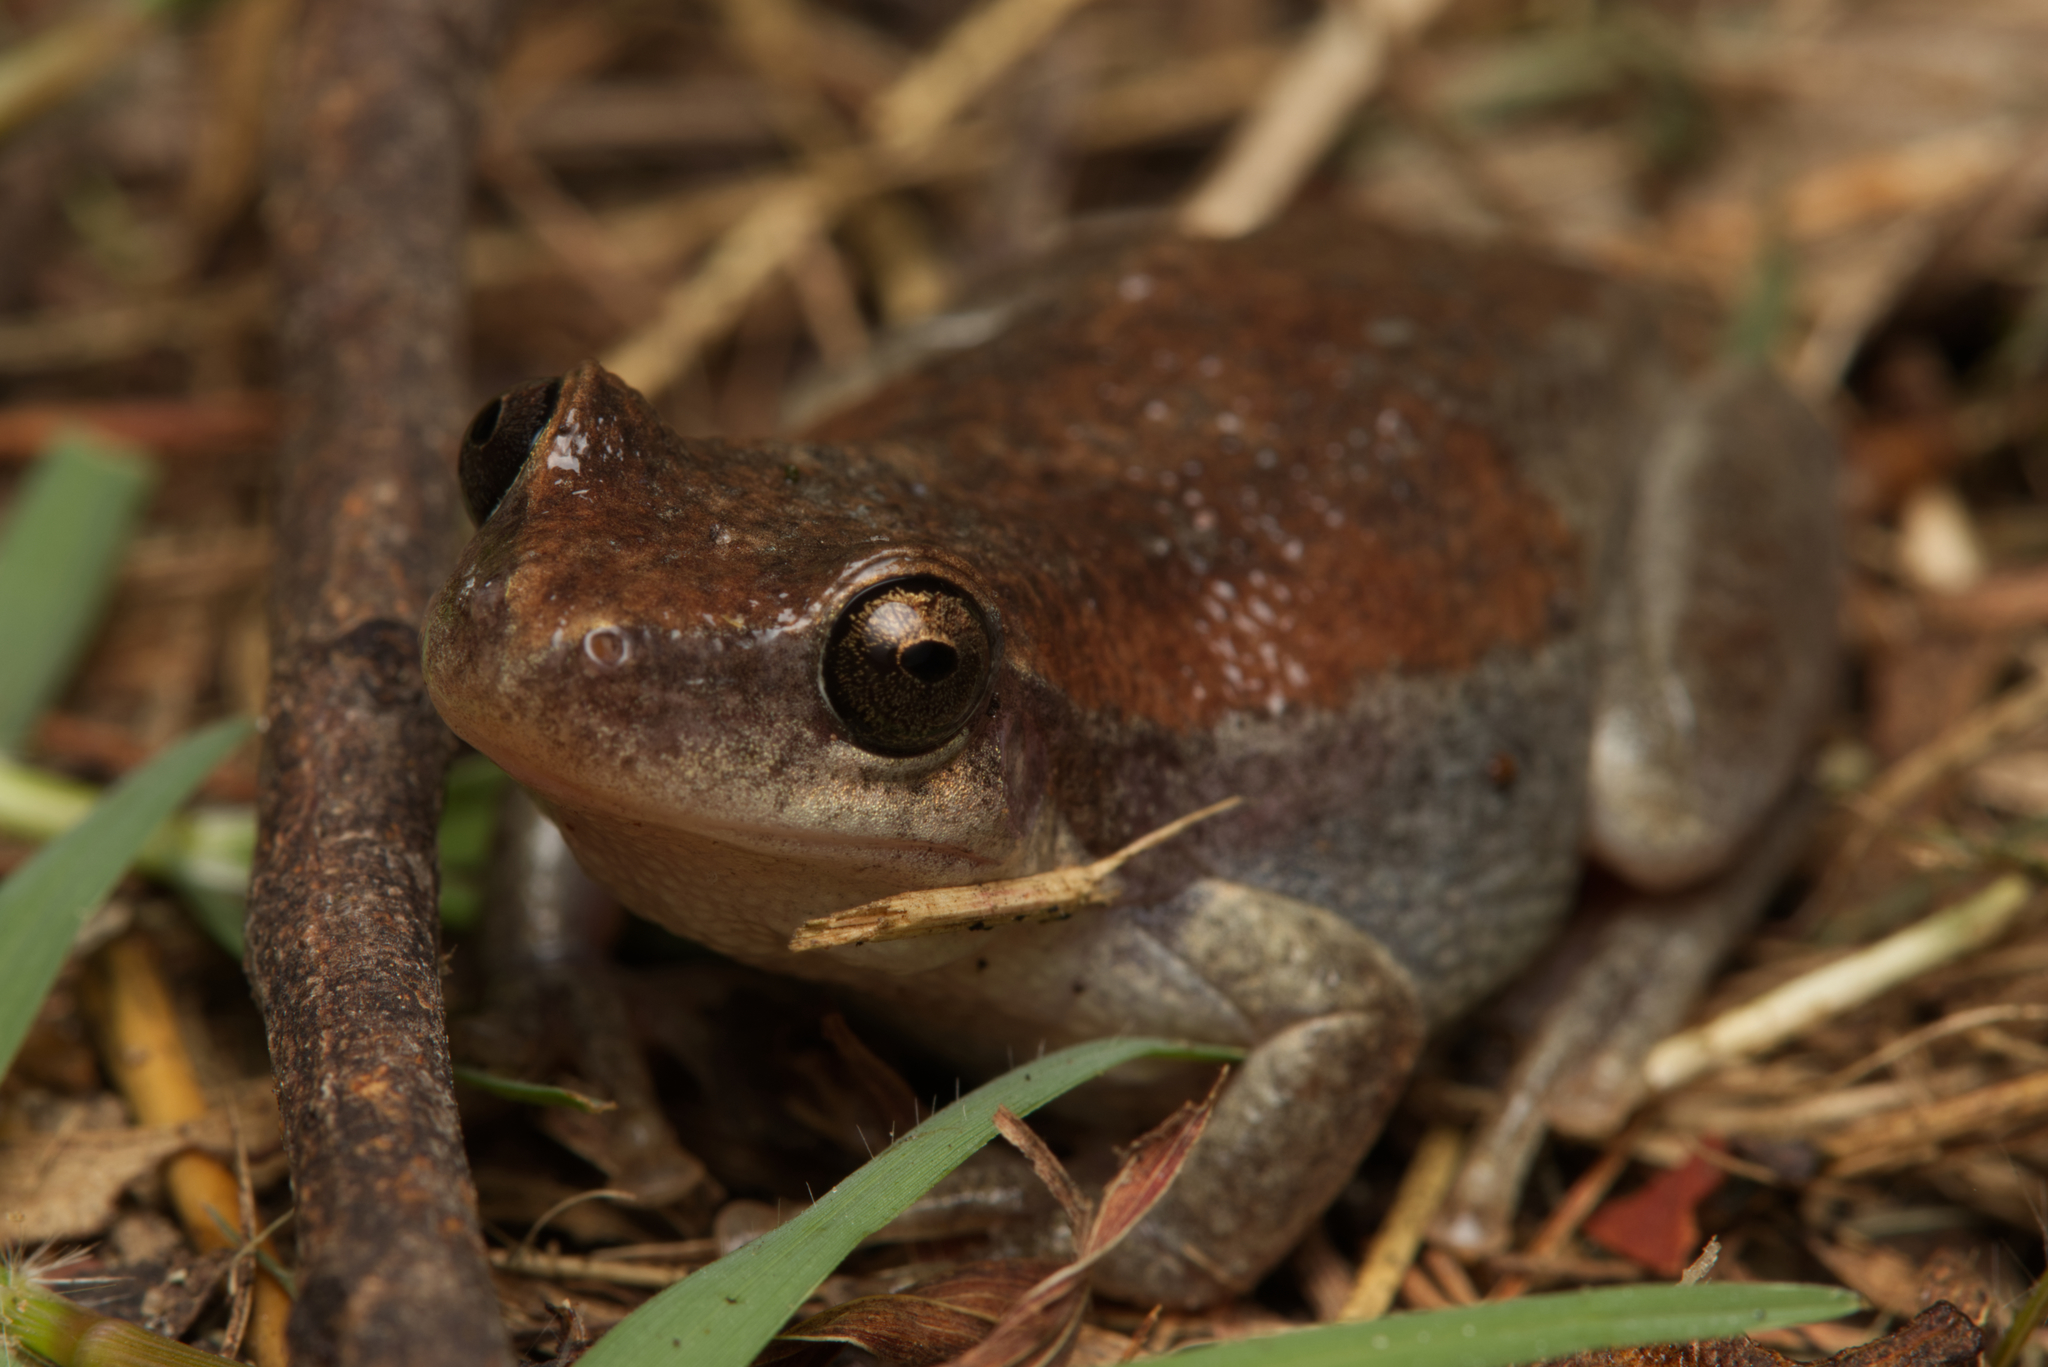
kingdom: Animalia
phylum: Chordata
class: Amphibia
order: Anura
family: Pelodryadidae
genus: Litoria
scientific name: Litoria rubella
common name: Desert tree frog
